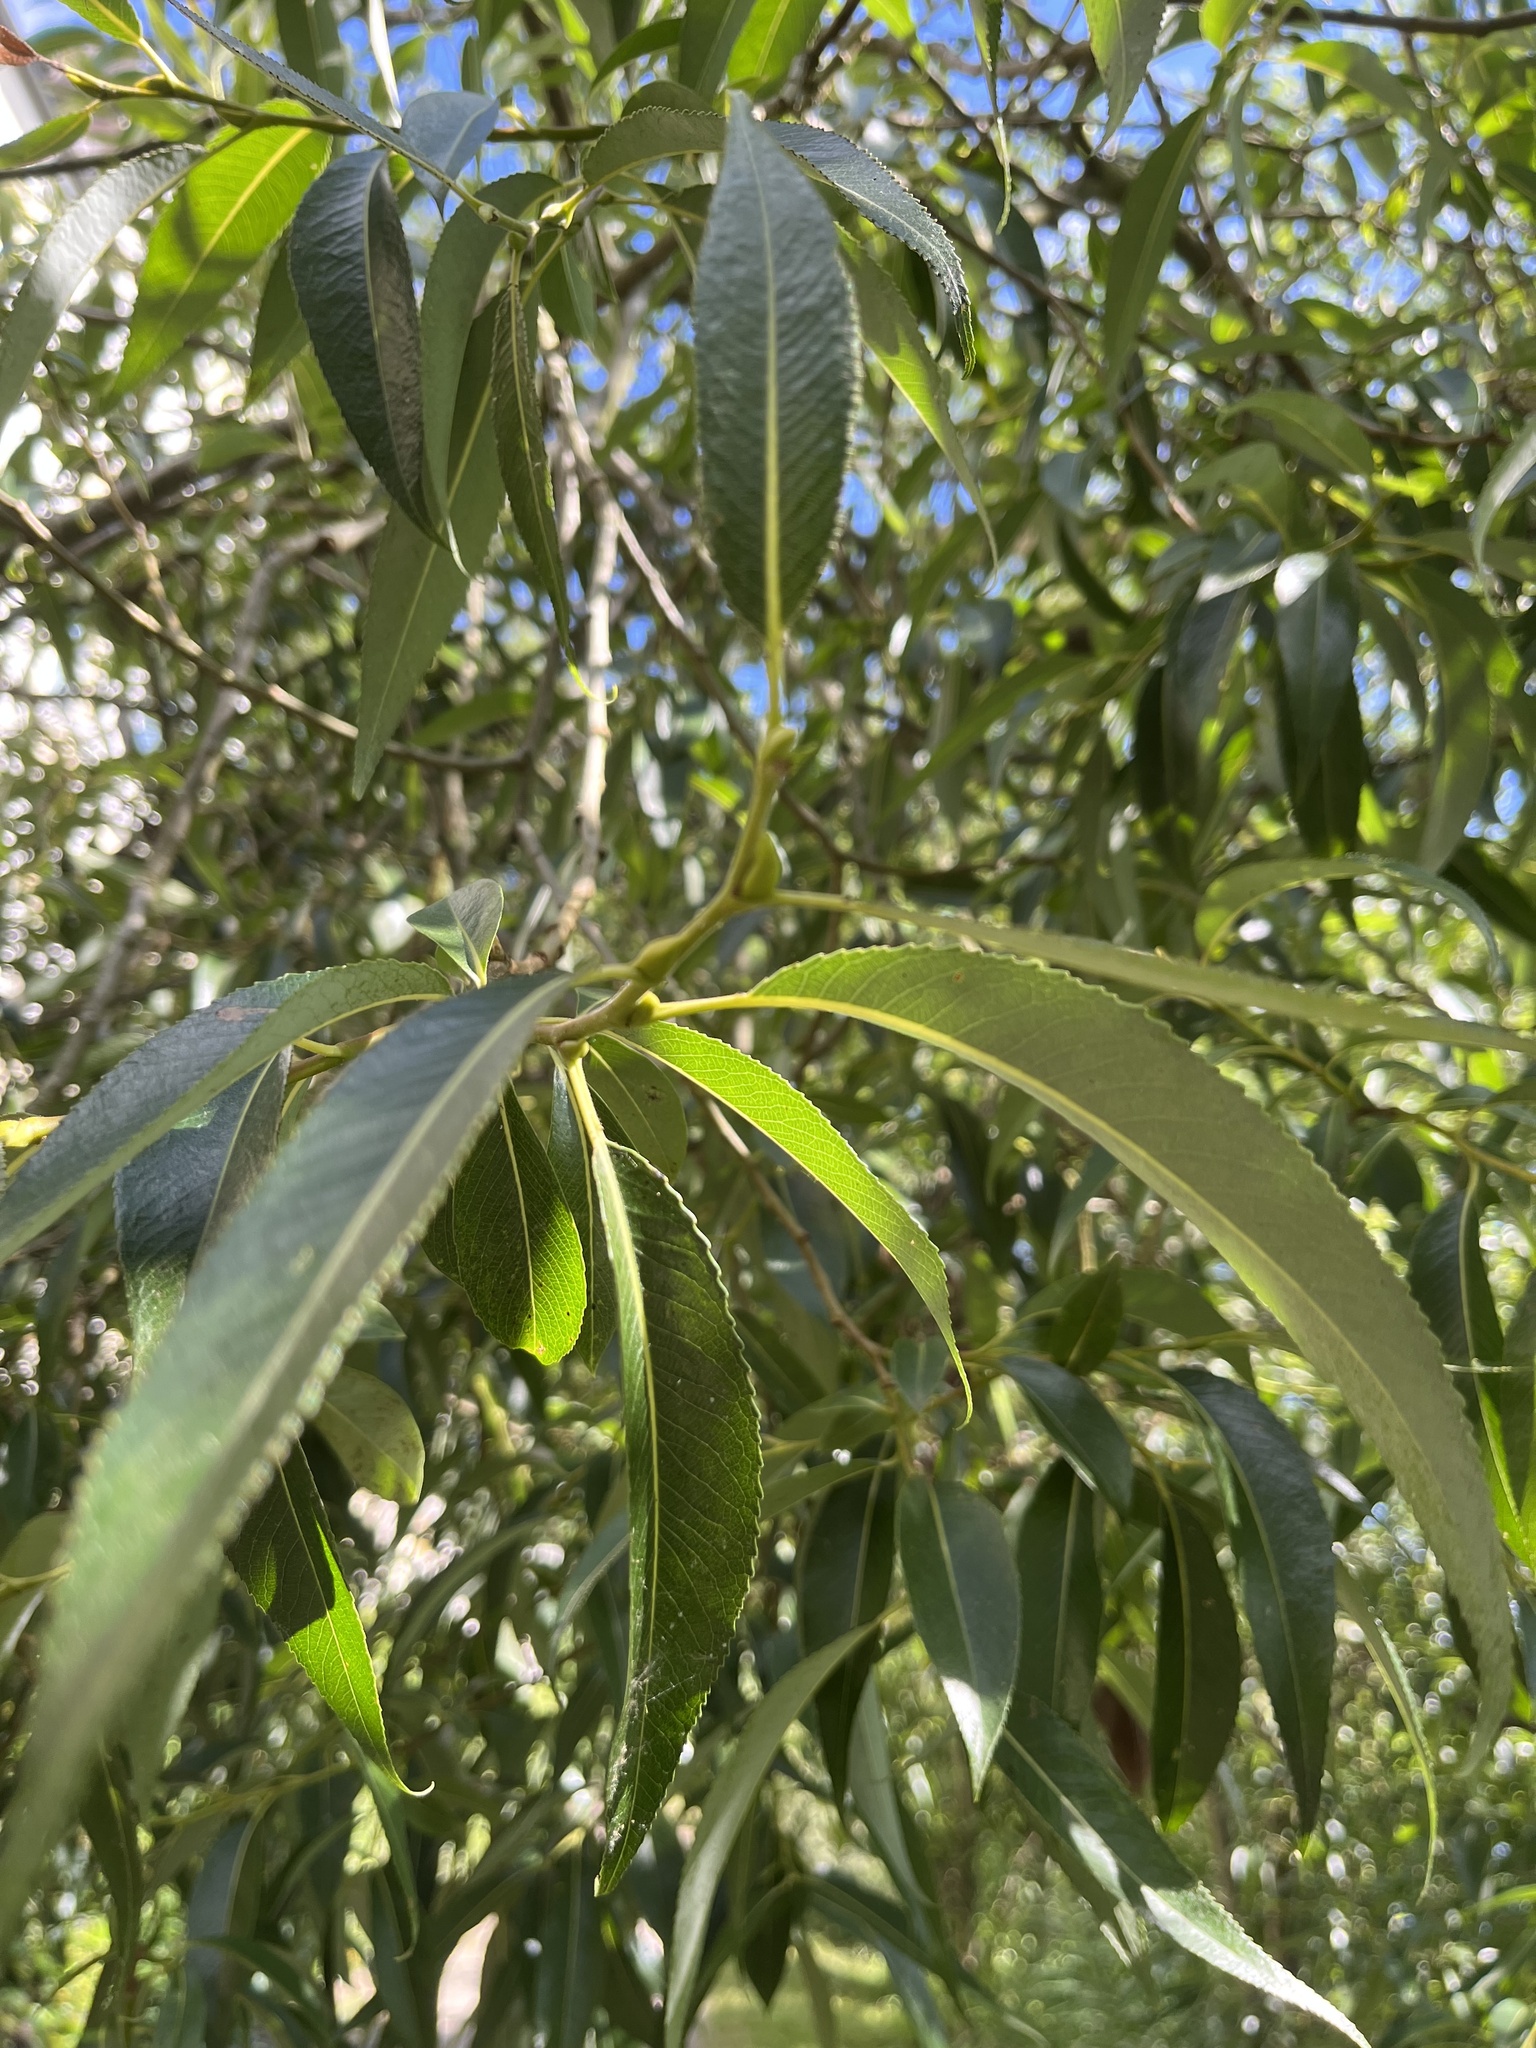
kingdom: Plantae
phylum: Tracheophyta
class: Magnoliopsida
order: Malpighiales
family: Salicaceae
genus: Salix
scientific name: Salix alba
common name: White willow
